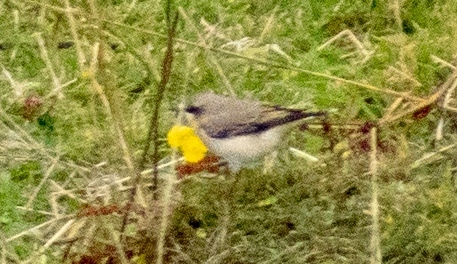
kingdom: Animalia
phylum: Chordata
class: Aves
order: Passeriformes
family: Muscicapidae
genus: Oenanthe
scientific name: Oenanthe oenanthe
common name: Northern wheatear
